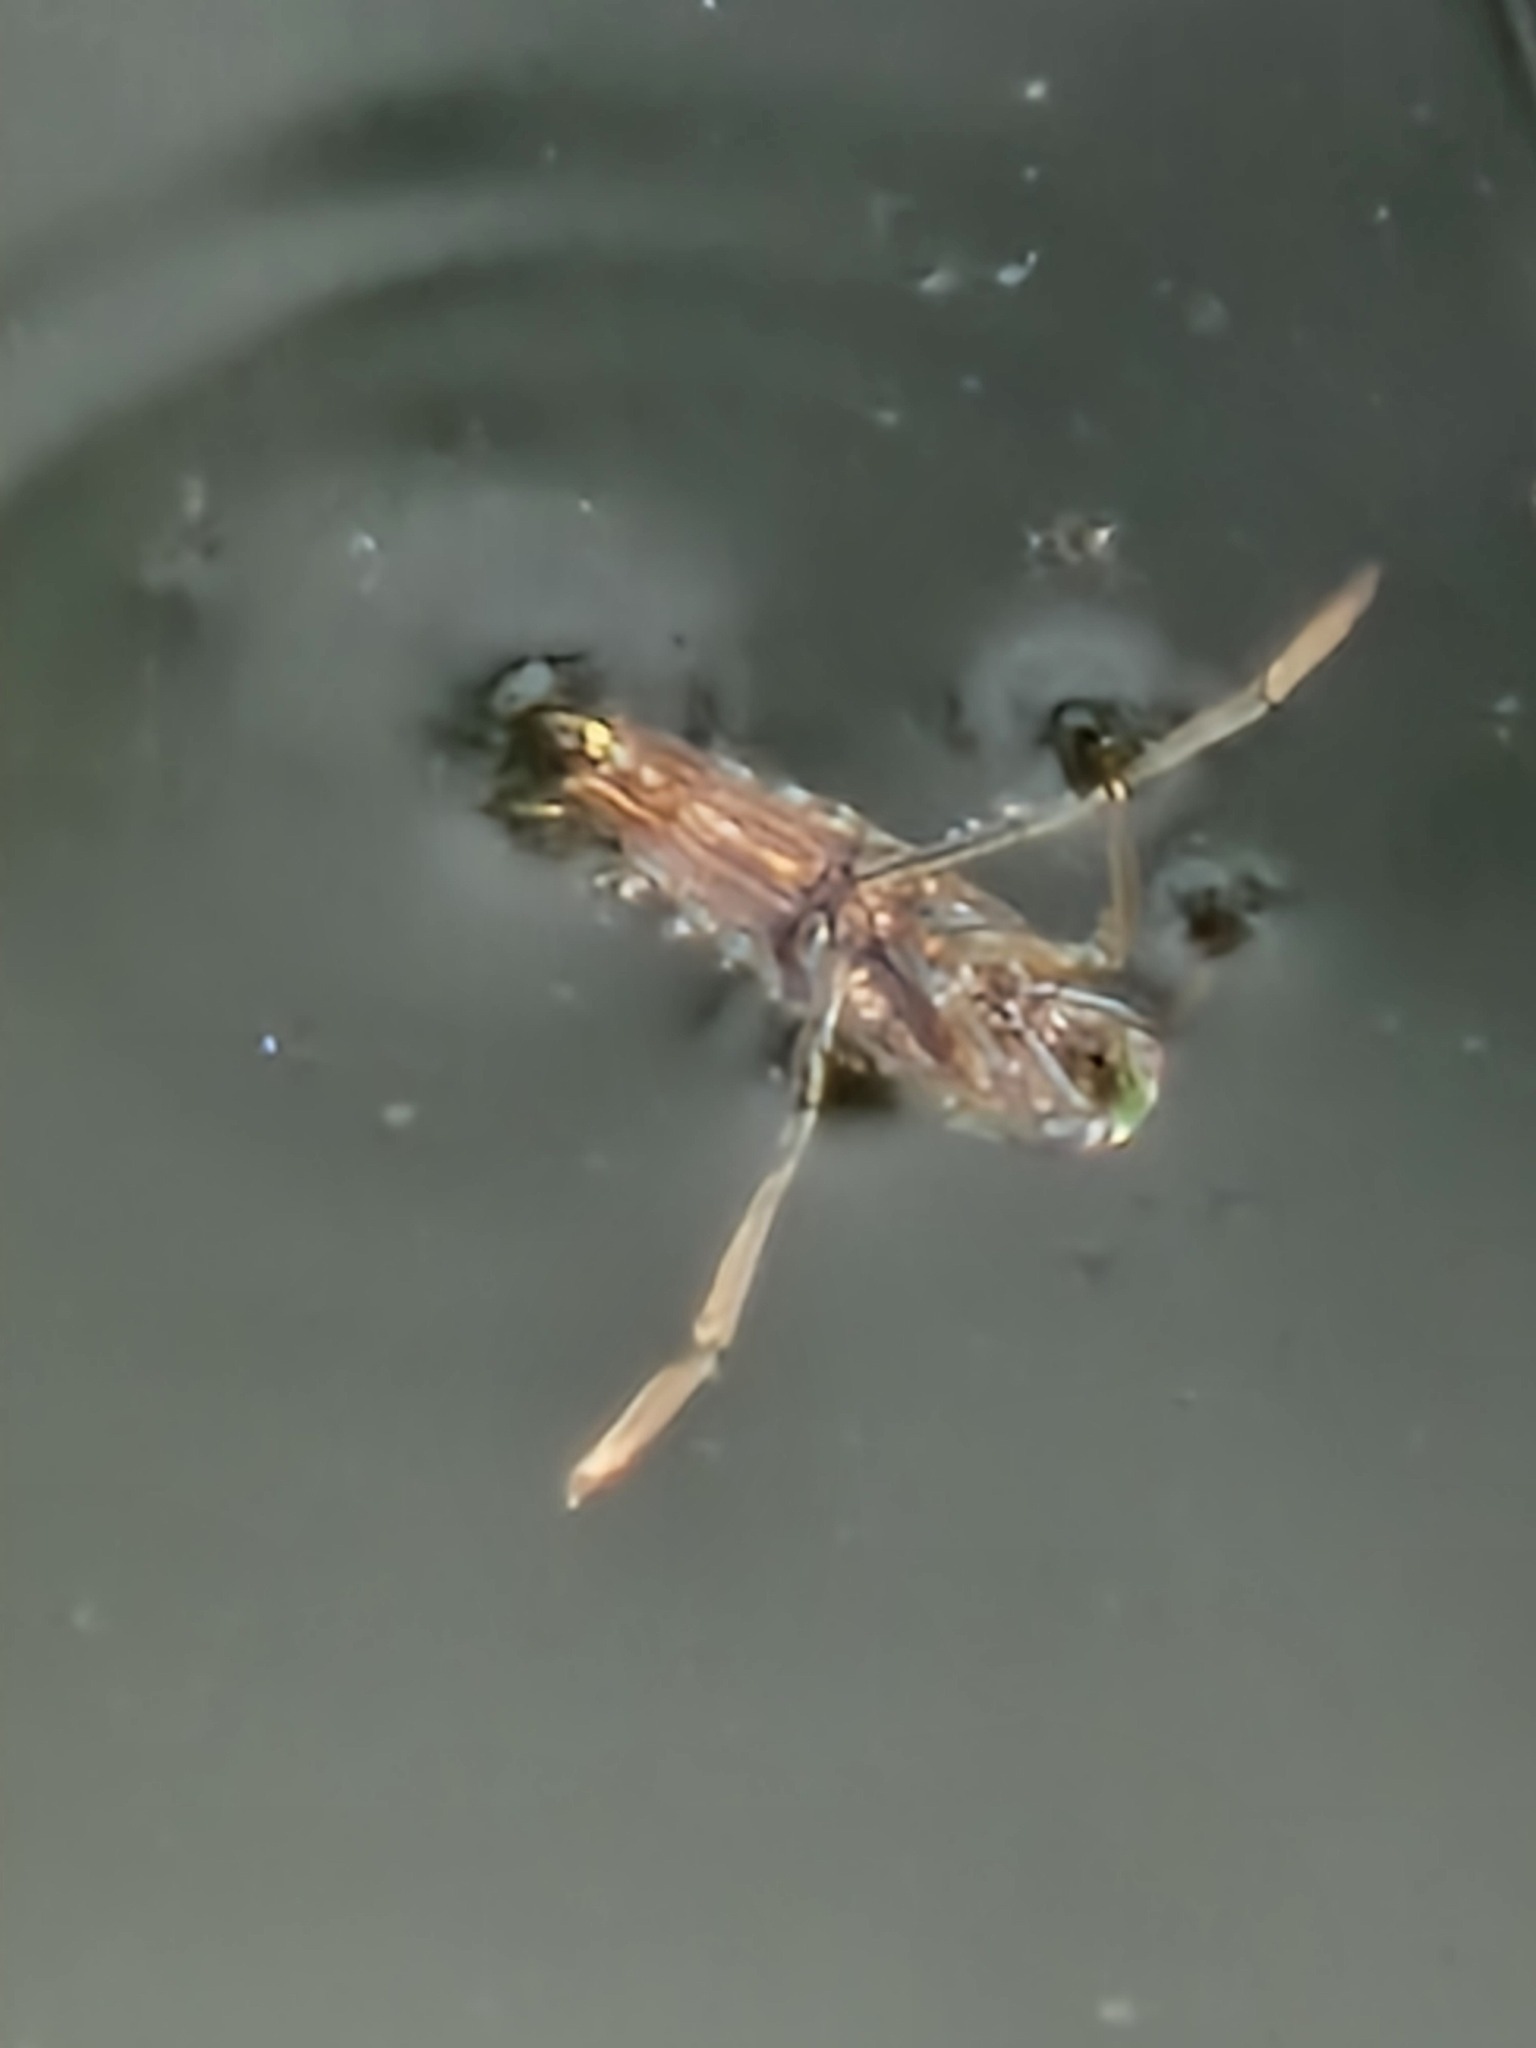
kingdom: Animalia
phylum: Arthropoda
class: Insecta
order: Hemiptera
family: Notonectidae
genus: Notonecta
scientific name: Notonecta
